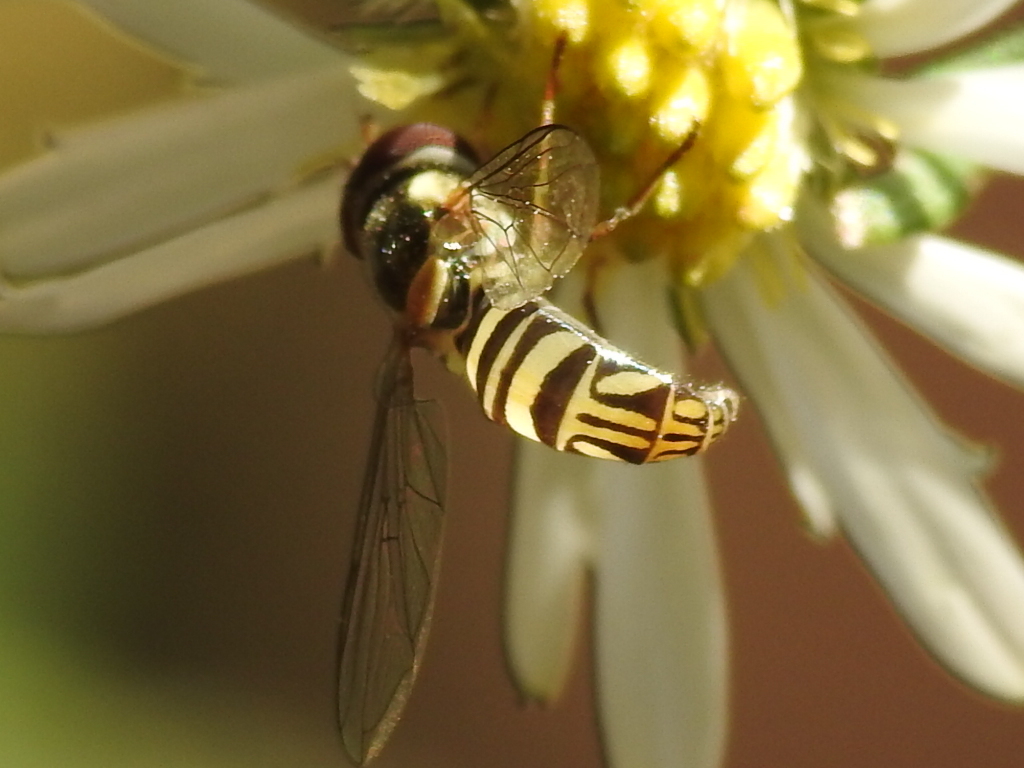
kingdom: Animalia
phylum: Arthropoda
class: Insecta
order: Diptera
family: Syrphidae
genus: Allograpta
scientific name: Allograpta exotica
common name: Syrphid fly
